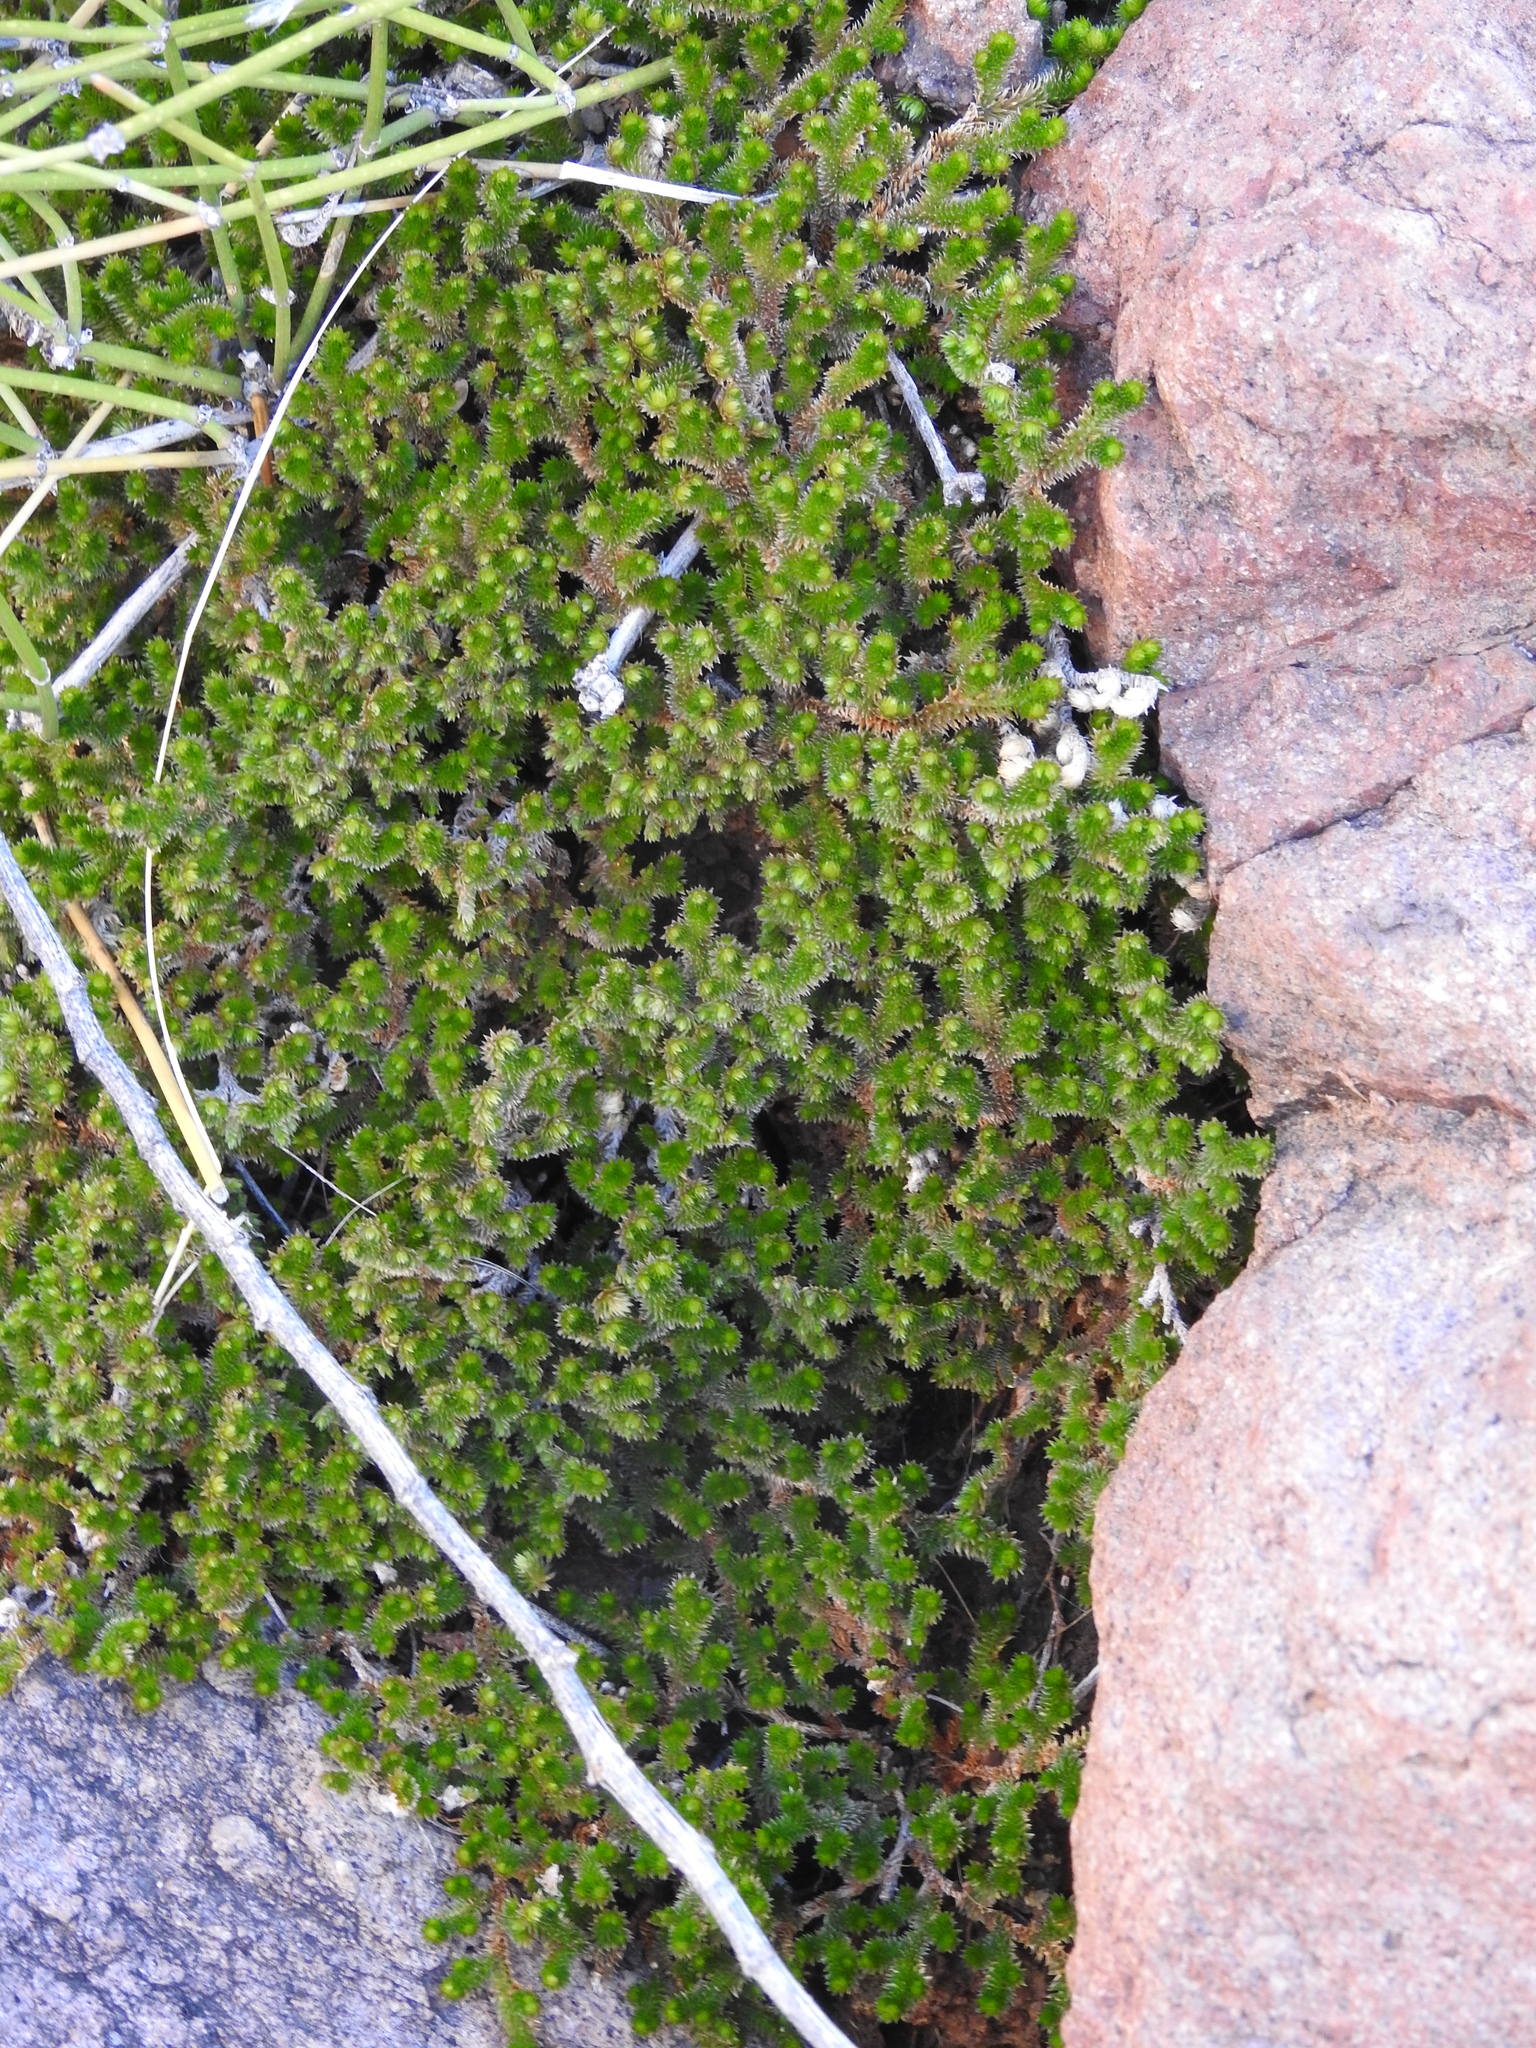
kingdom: Plantae
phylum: Tracheophyta
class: Lycopodiopsida
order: Selaginellales
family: Selaginellaceae
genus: Selaginella
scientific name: Selaginella arizonica
